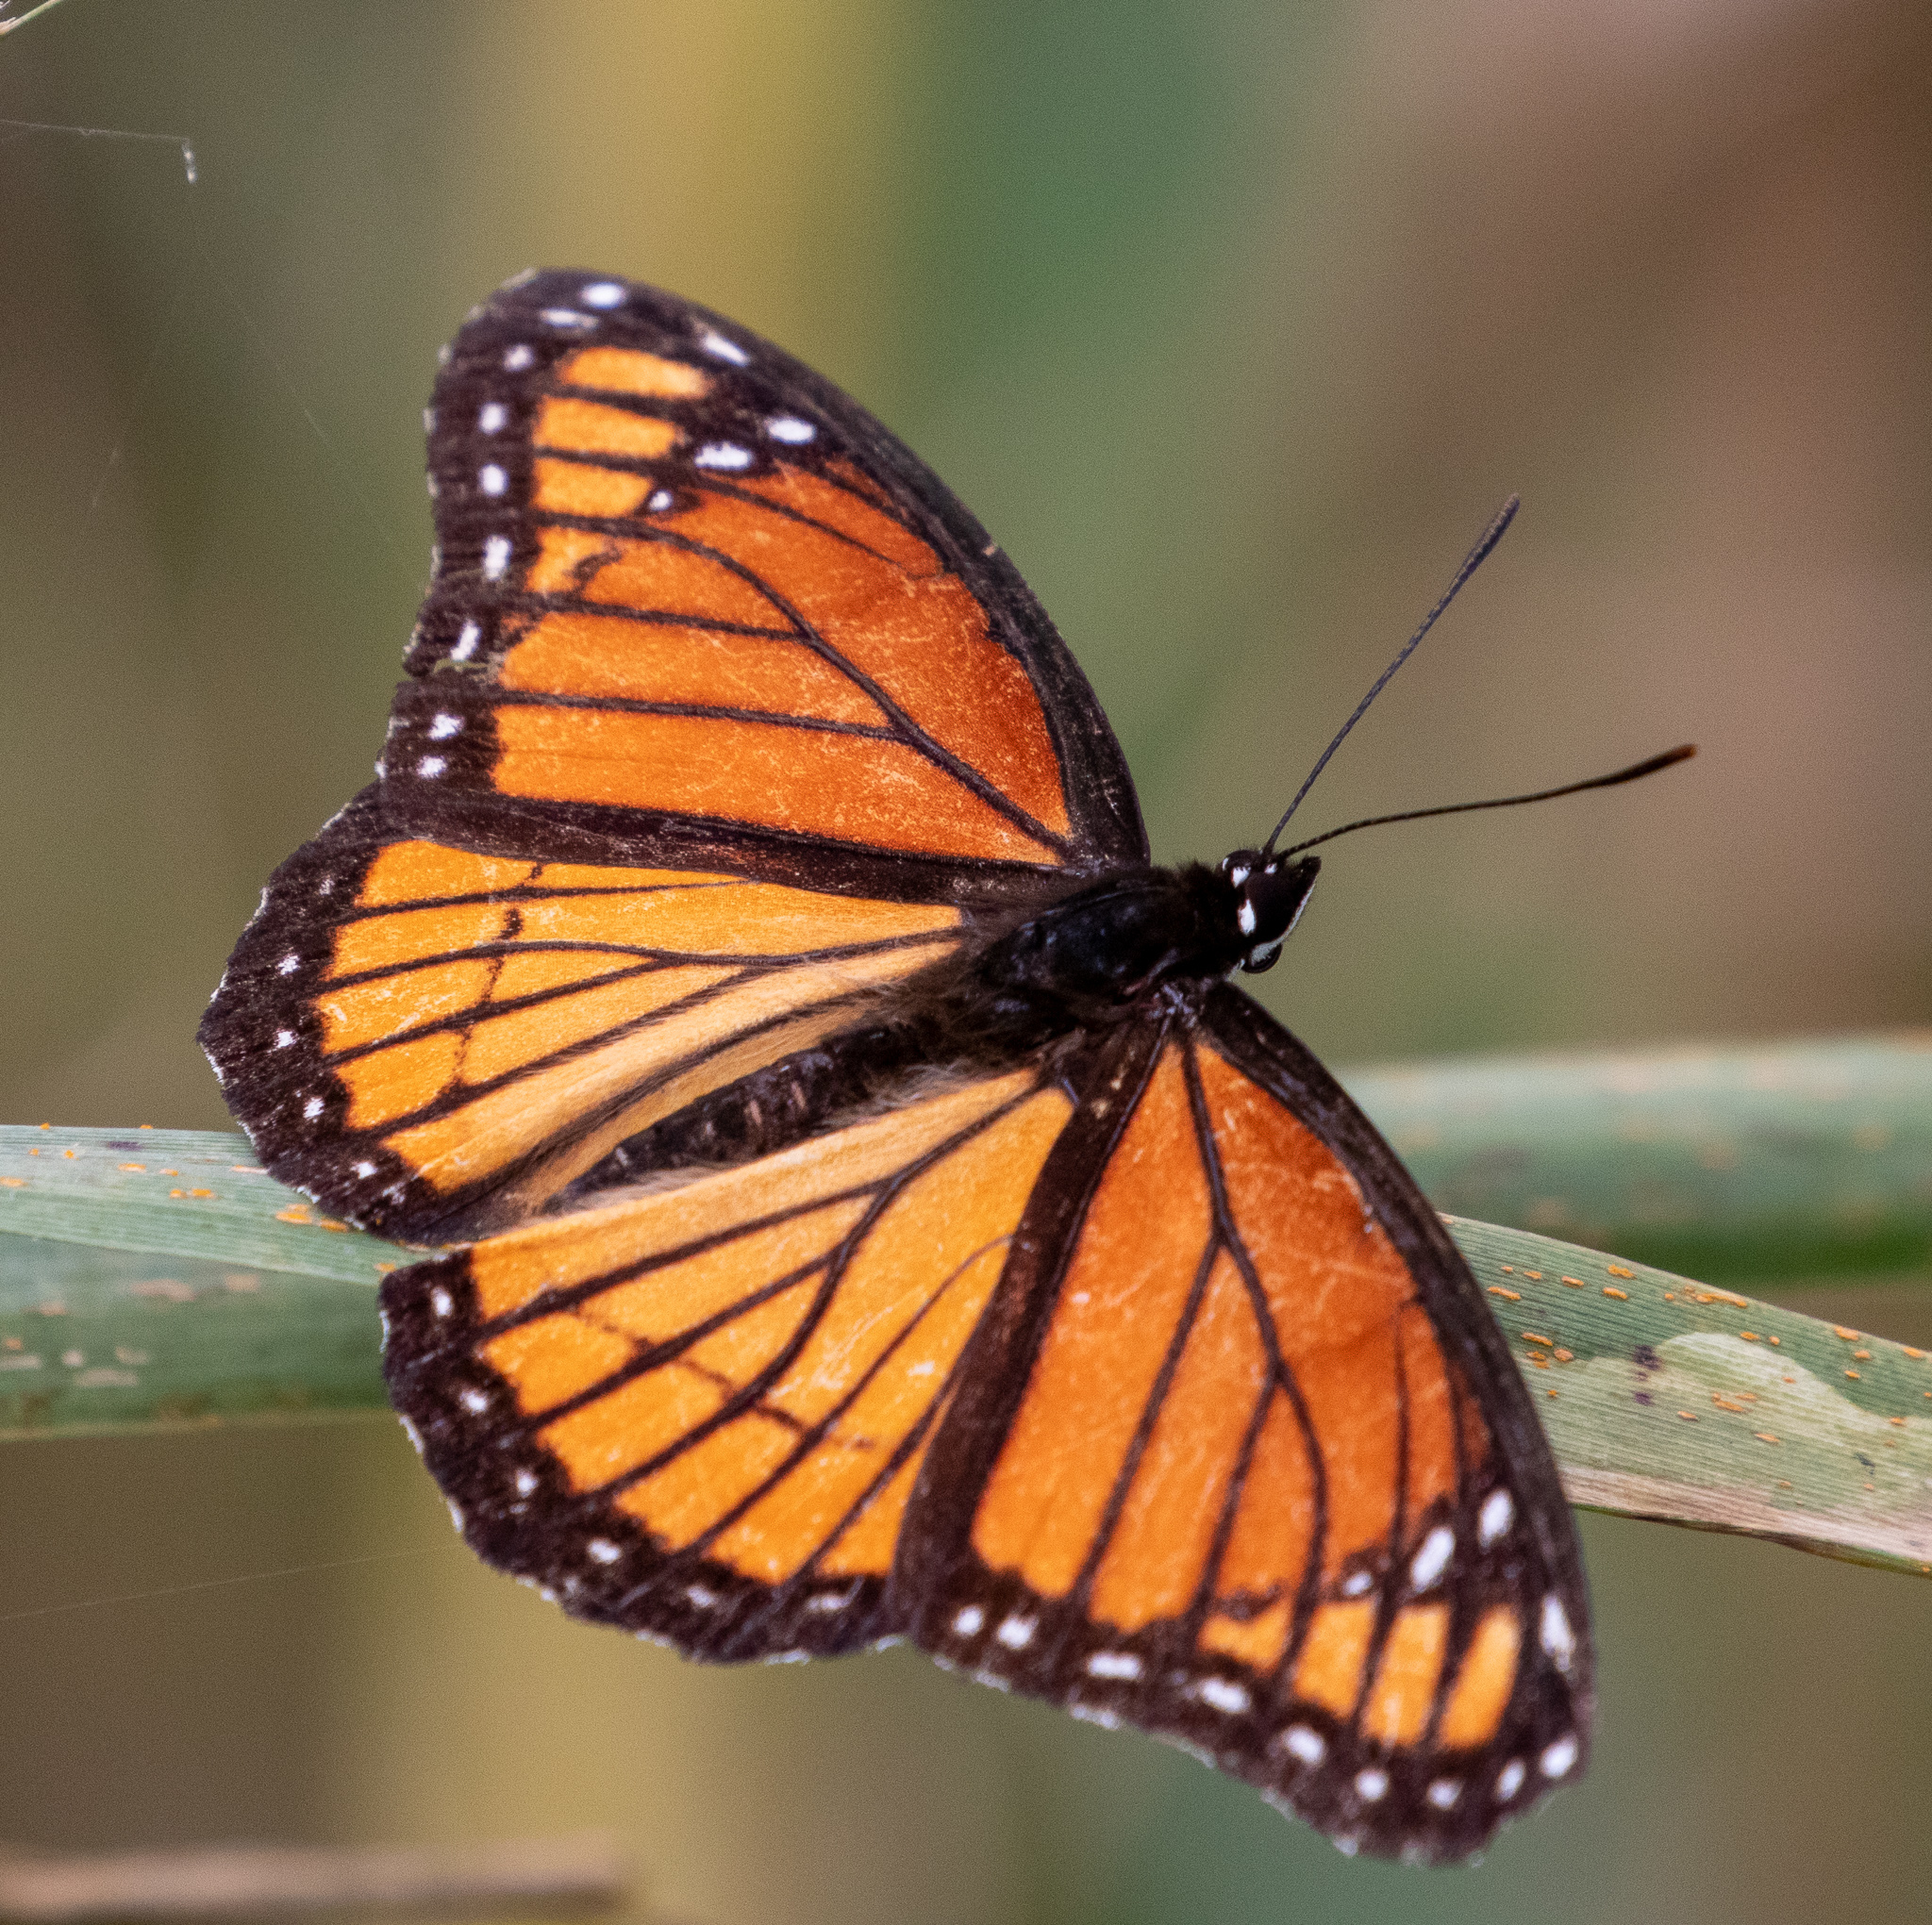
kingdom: Animalia
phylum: Arthropoda
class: Insecta
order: Lepidoptera
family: Nymphalidae
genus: Limenitis
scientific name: Limenitis archippus
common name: Viceroy
